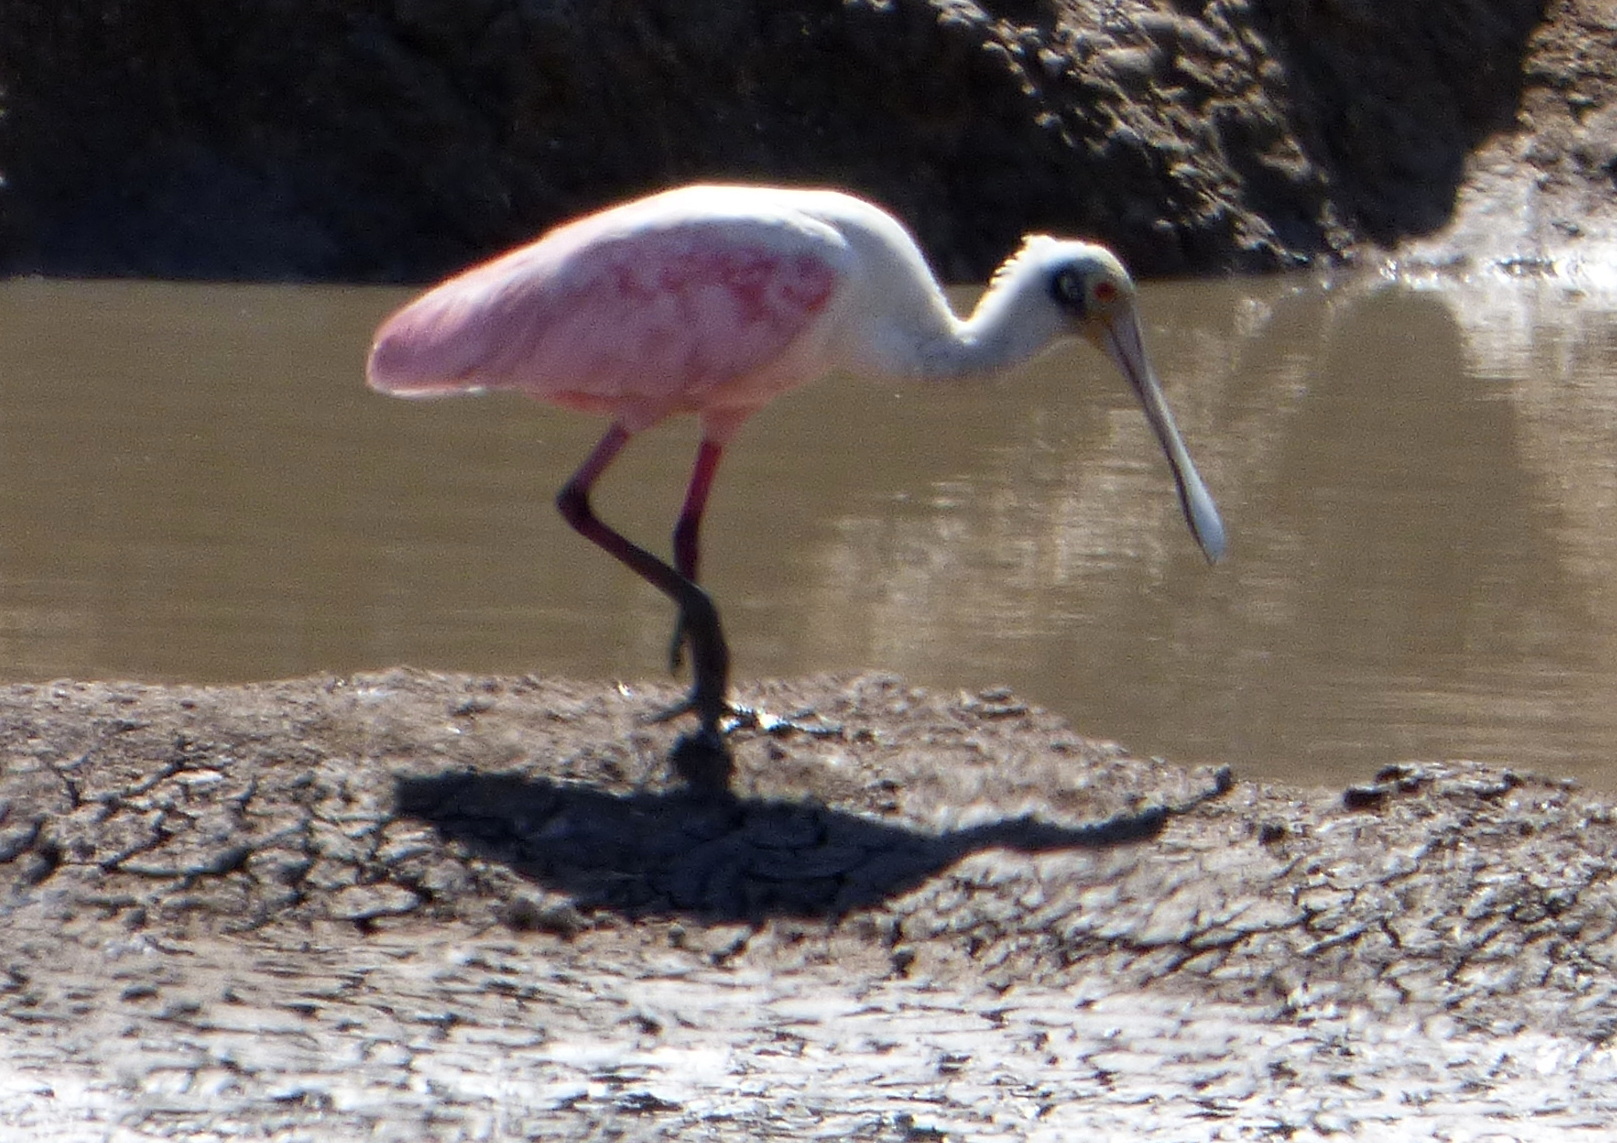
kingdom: Animalia
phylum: Chordata
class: Aves
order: Pelecaniformes
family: Threskiornithidae
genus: Platalea
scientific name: Platalea ajaja
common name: Roseate spoonbill
